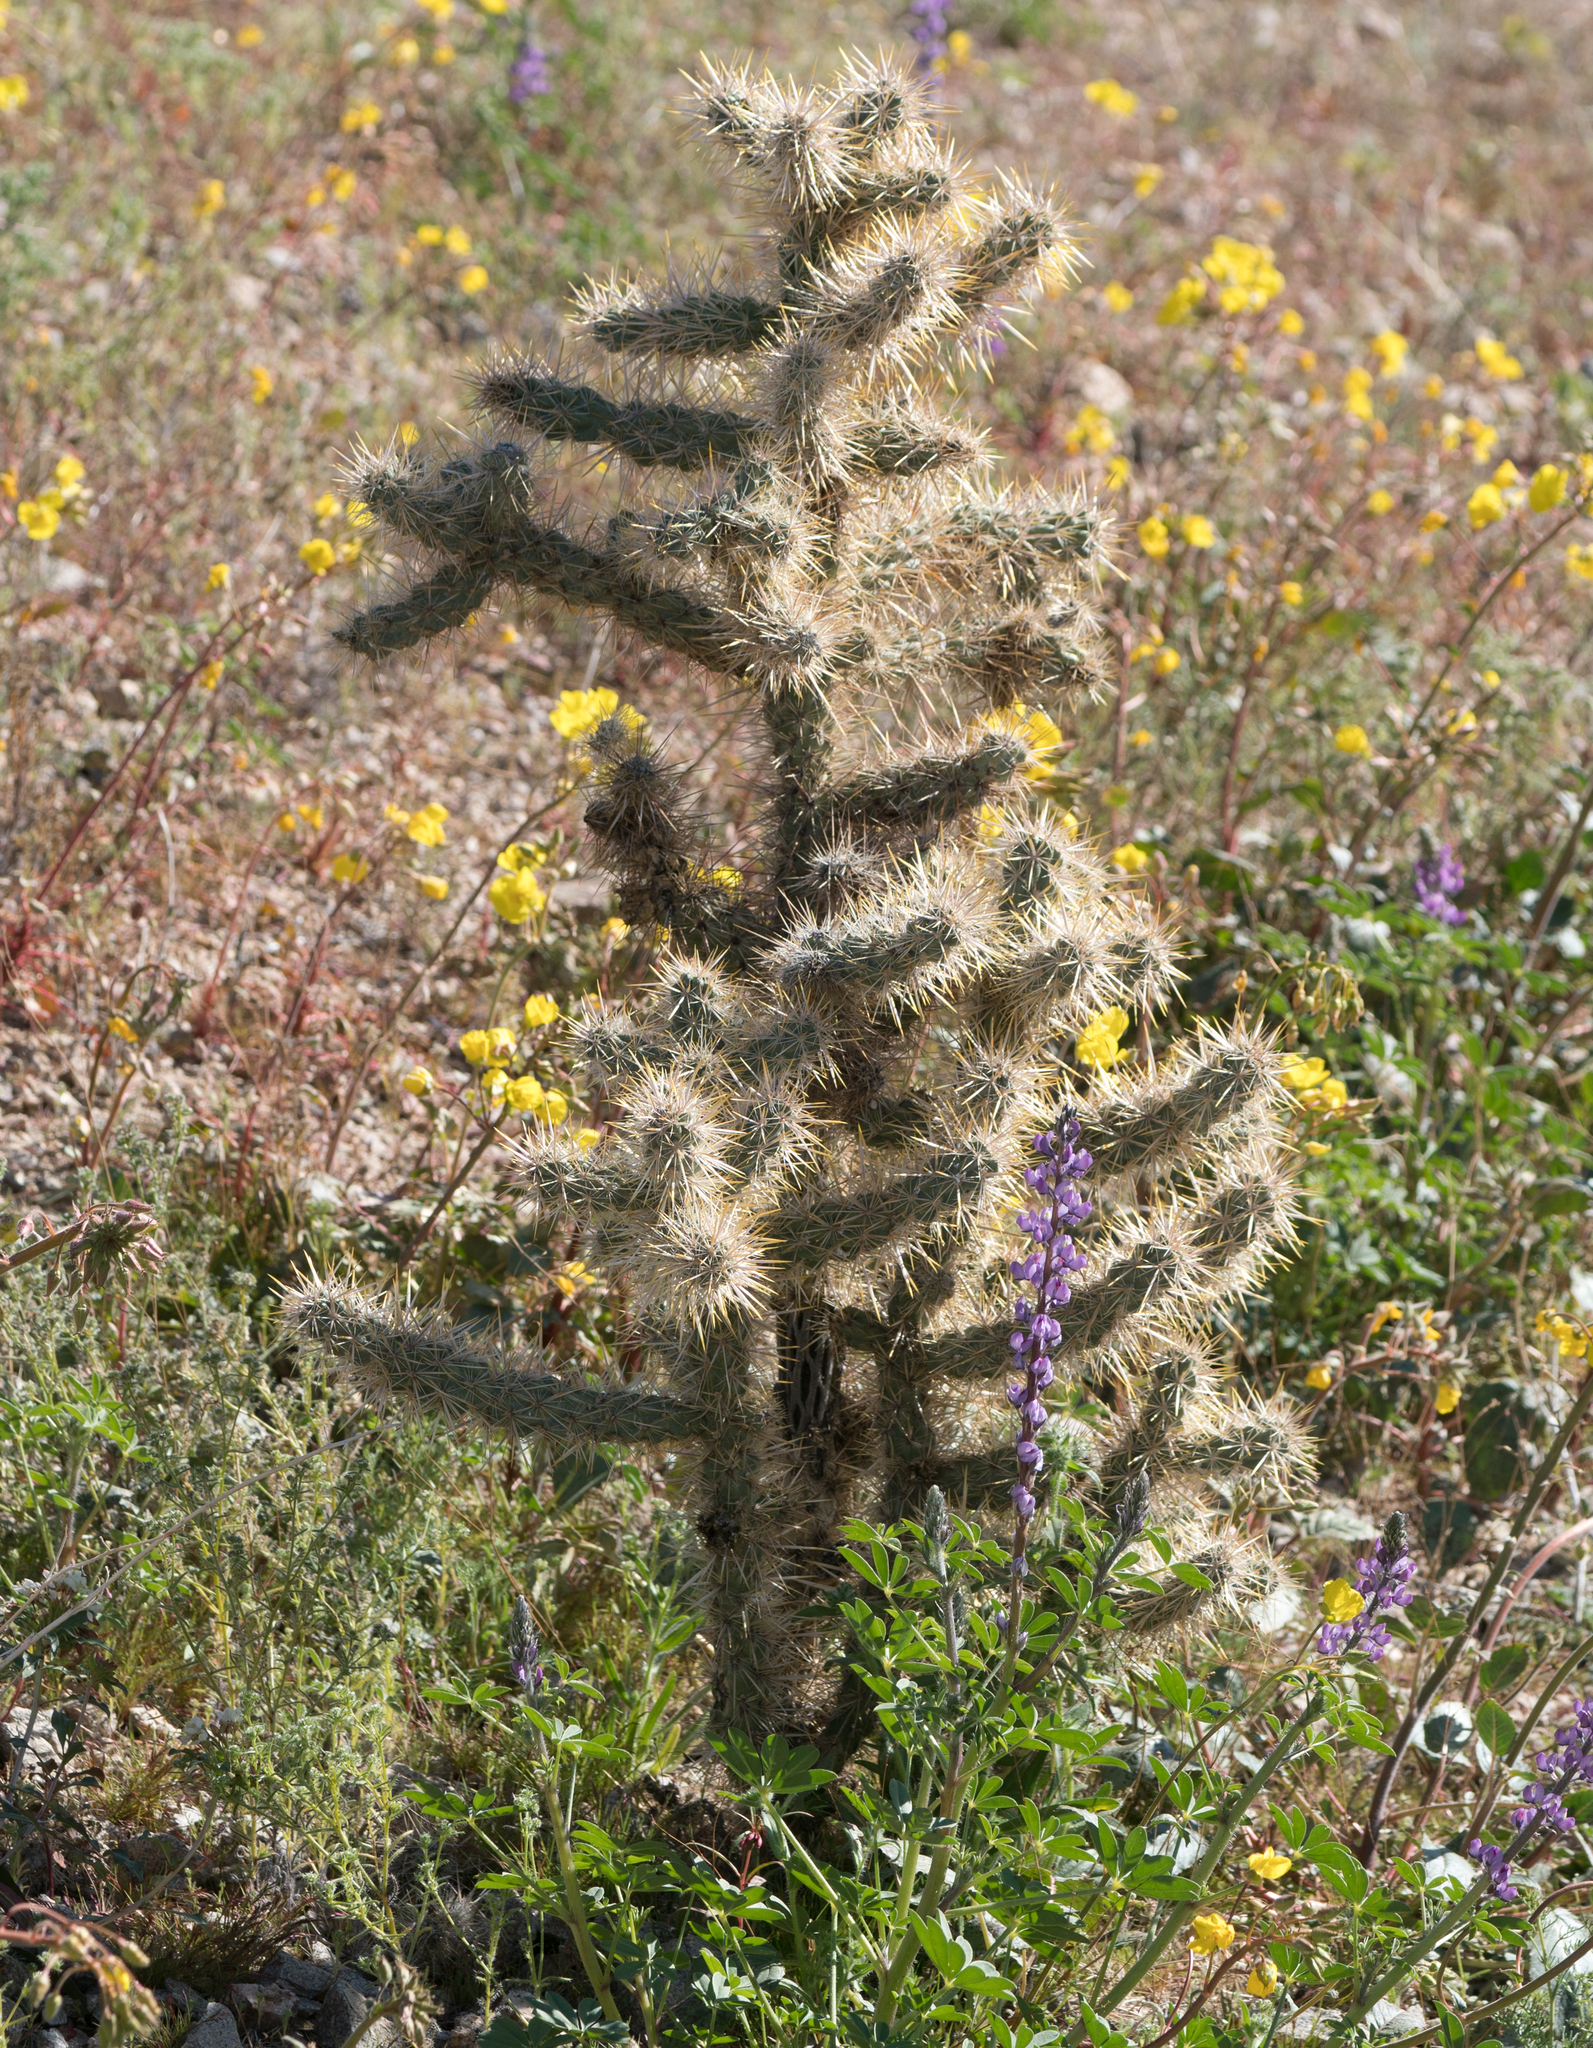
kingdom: Plantae
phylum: Tracheophyta
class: Magnoliopsida
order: Caryophyllales
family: Cactaceae
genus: Cylindropuntia
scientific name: Cylindropuntia echinocarpa
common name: Ground cholla
